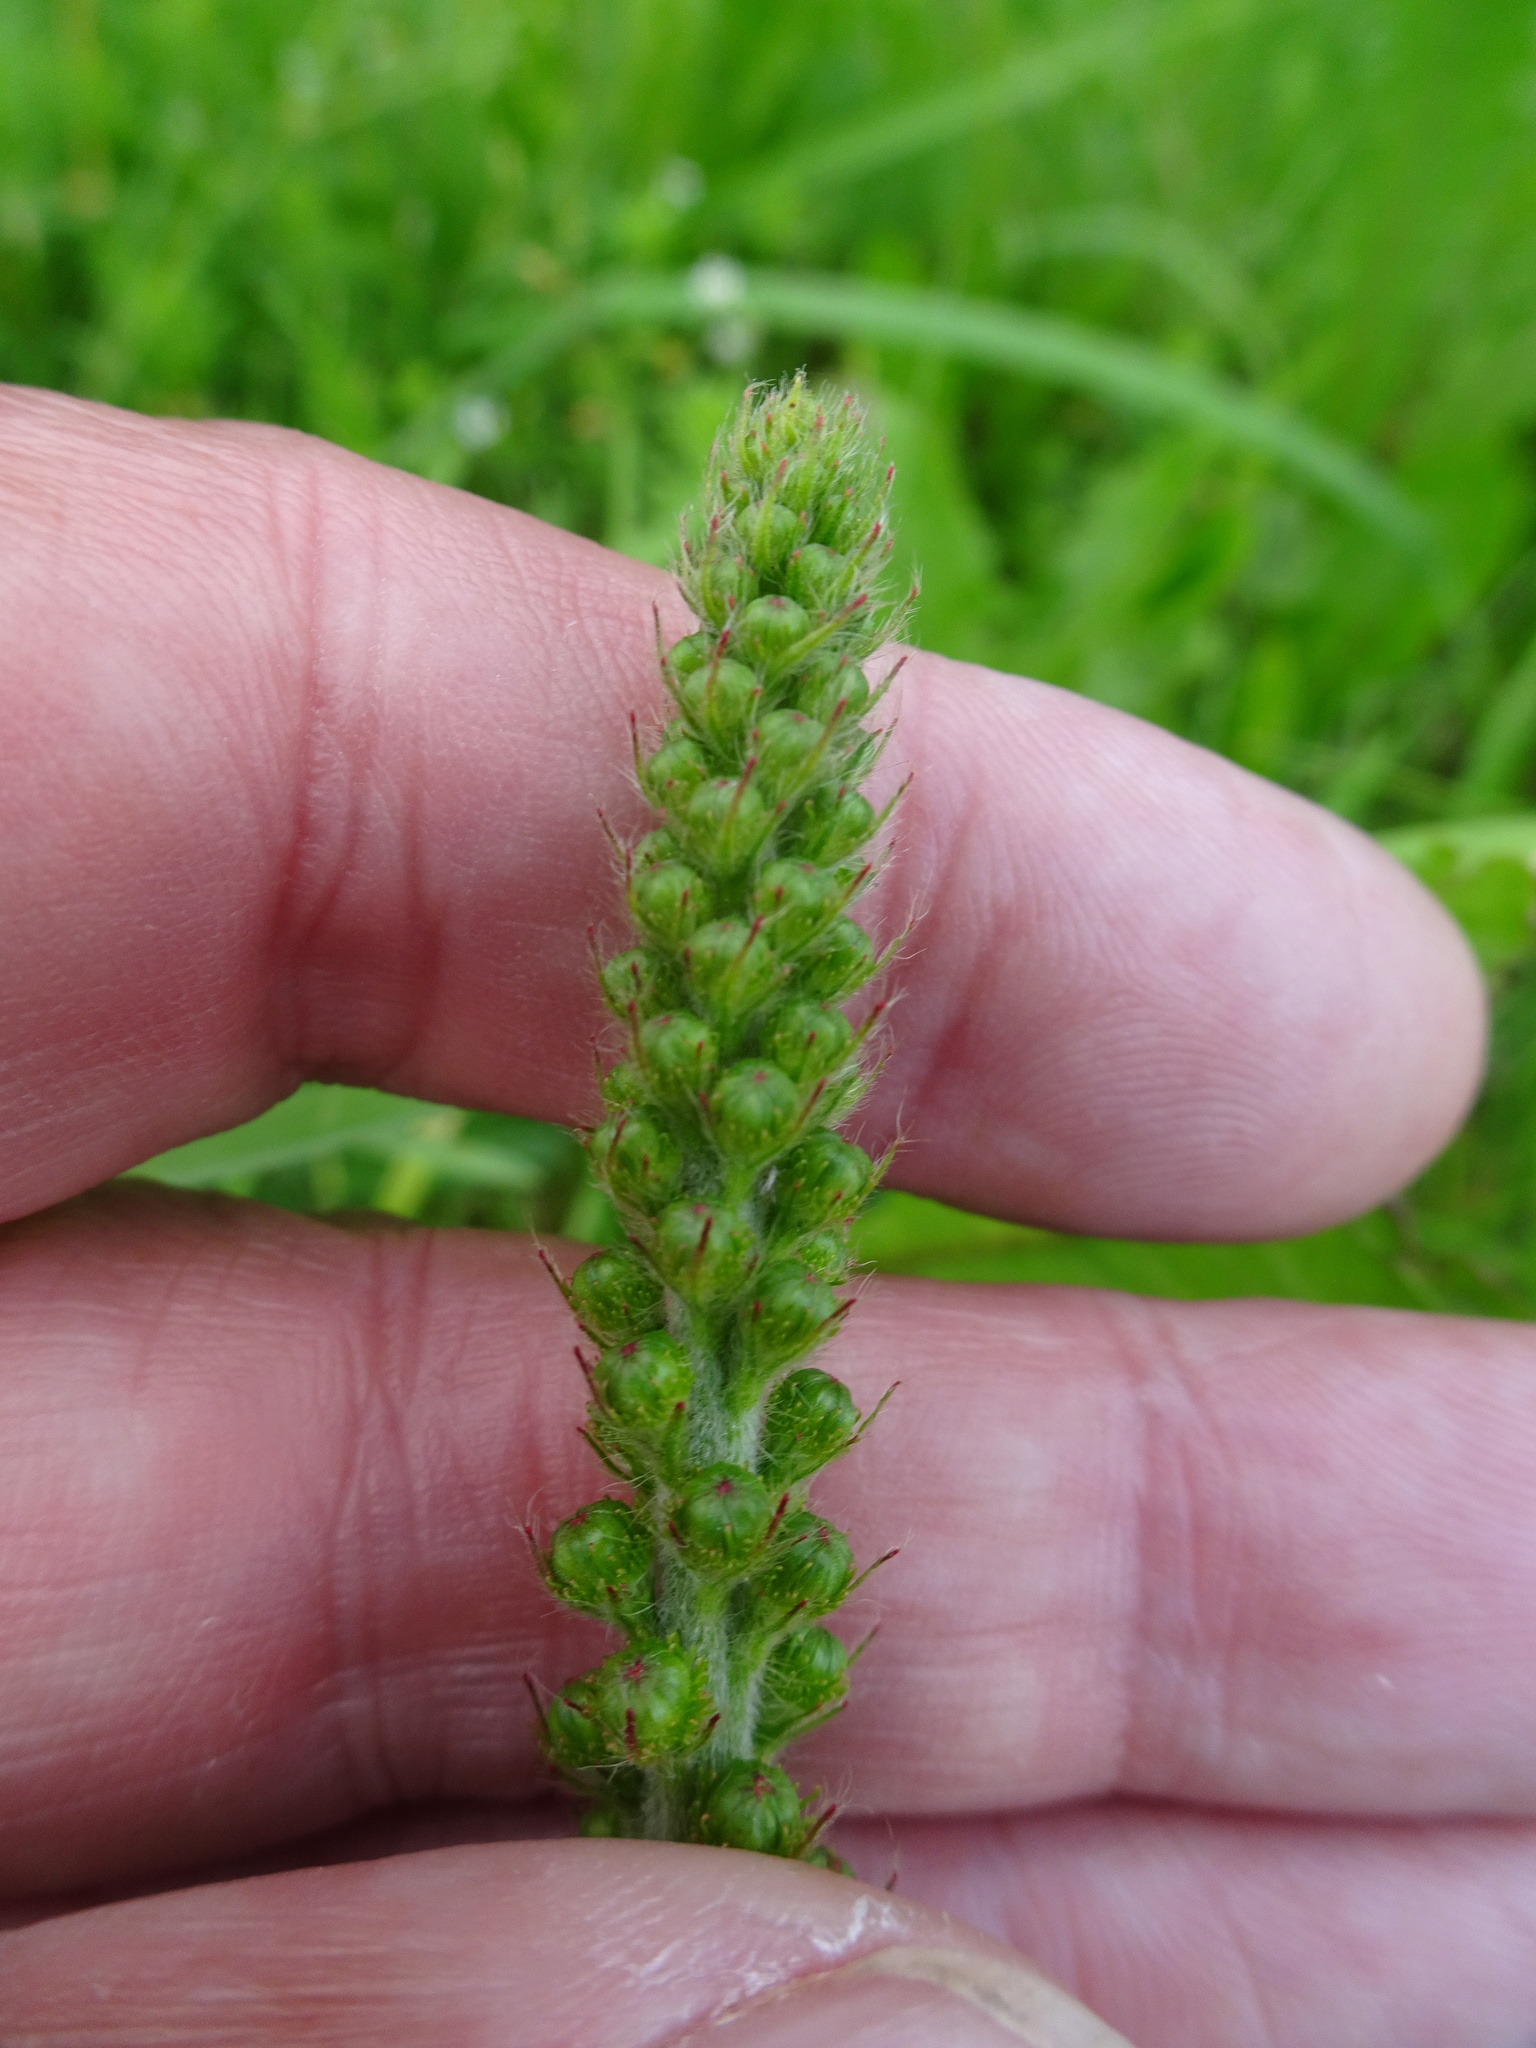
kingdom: Plantae
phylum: Tracheophyta
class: Magnoliopsida
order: Rosales
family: Rosaceae
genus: Agrimonia
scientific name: Agrimonia eupatoria
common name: Agrimony
